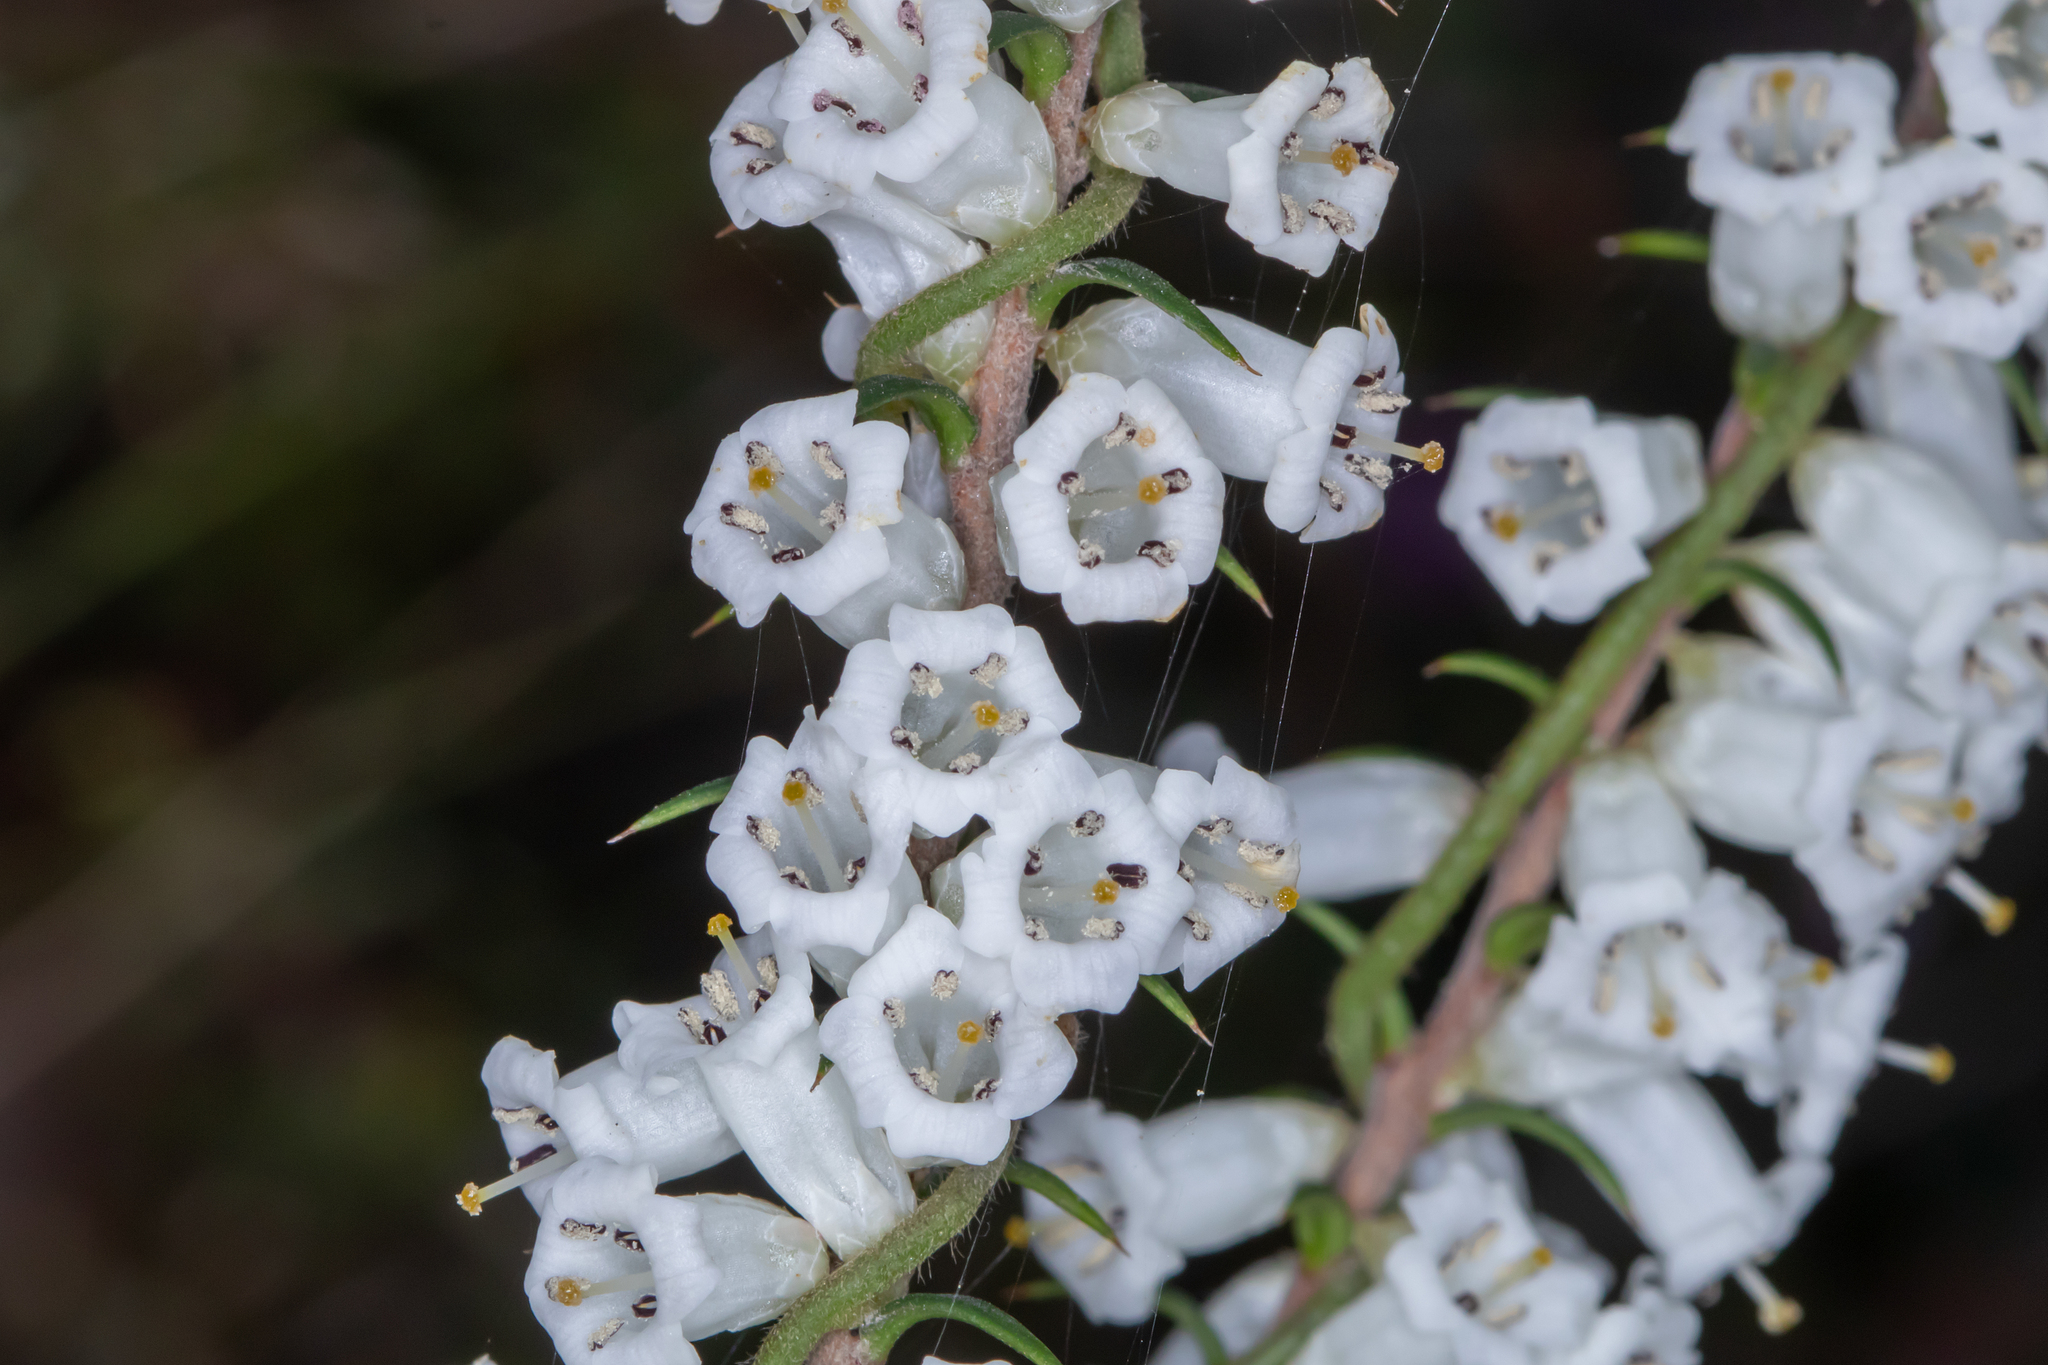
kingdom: Plantae
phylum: Tracheophyta
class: Magnoliopsida
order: Ericales
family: Ericaceae
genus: Epacris
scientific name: Epacris impressa
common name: Common-heath
